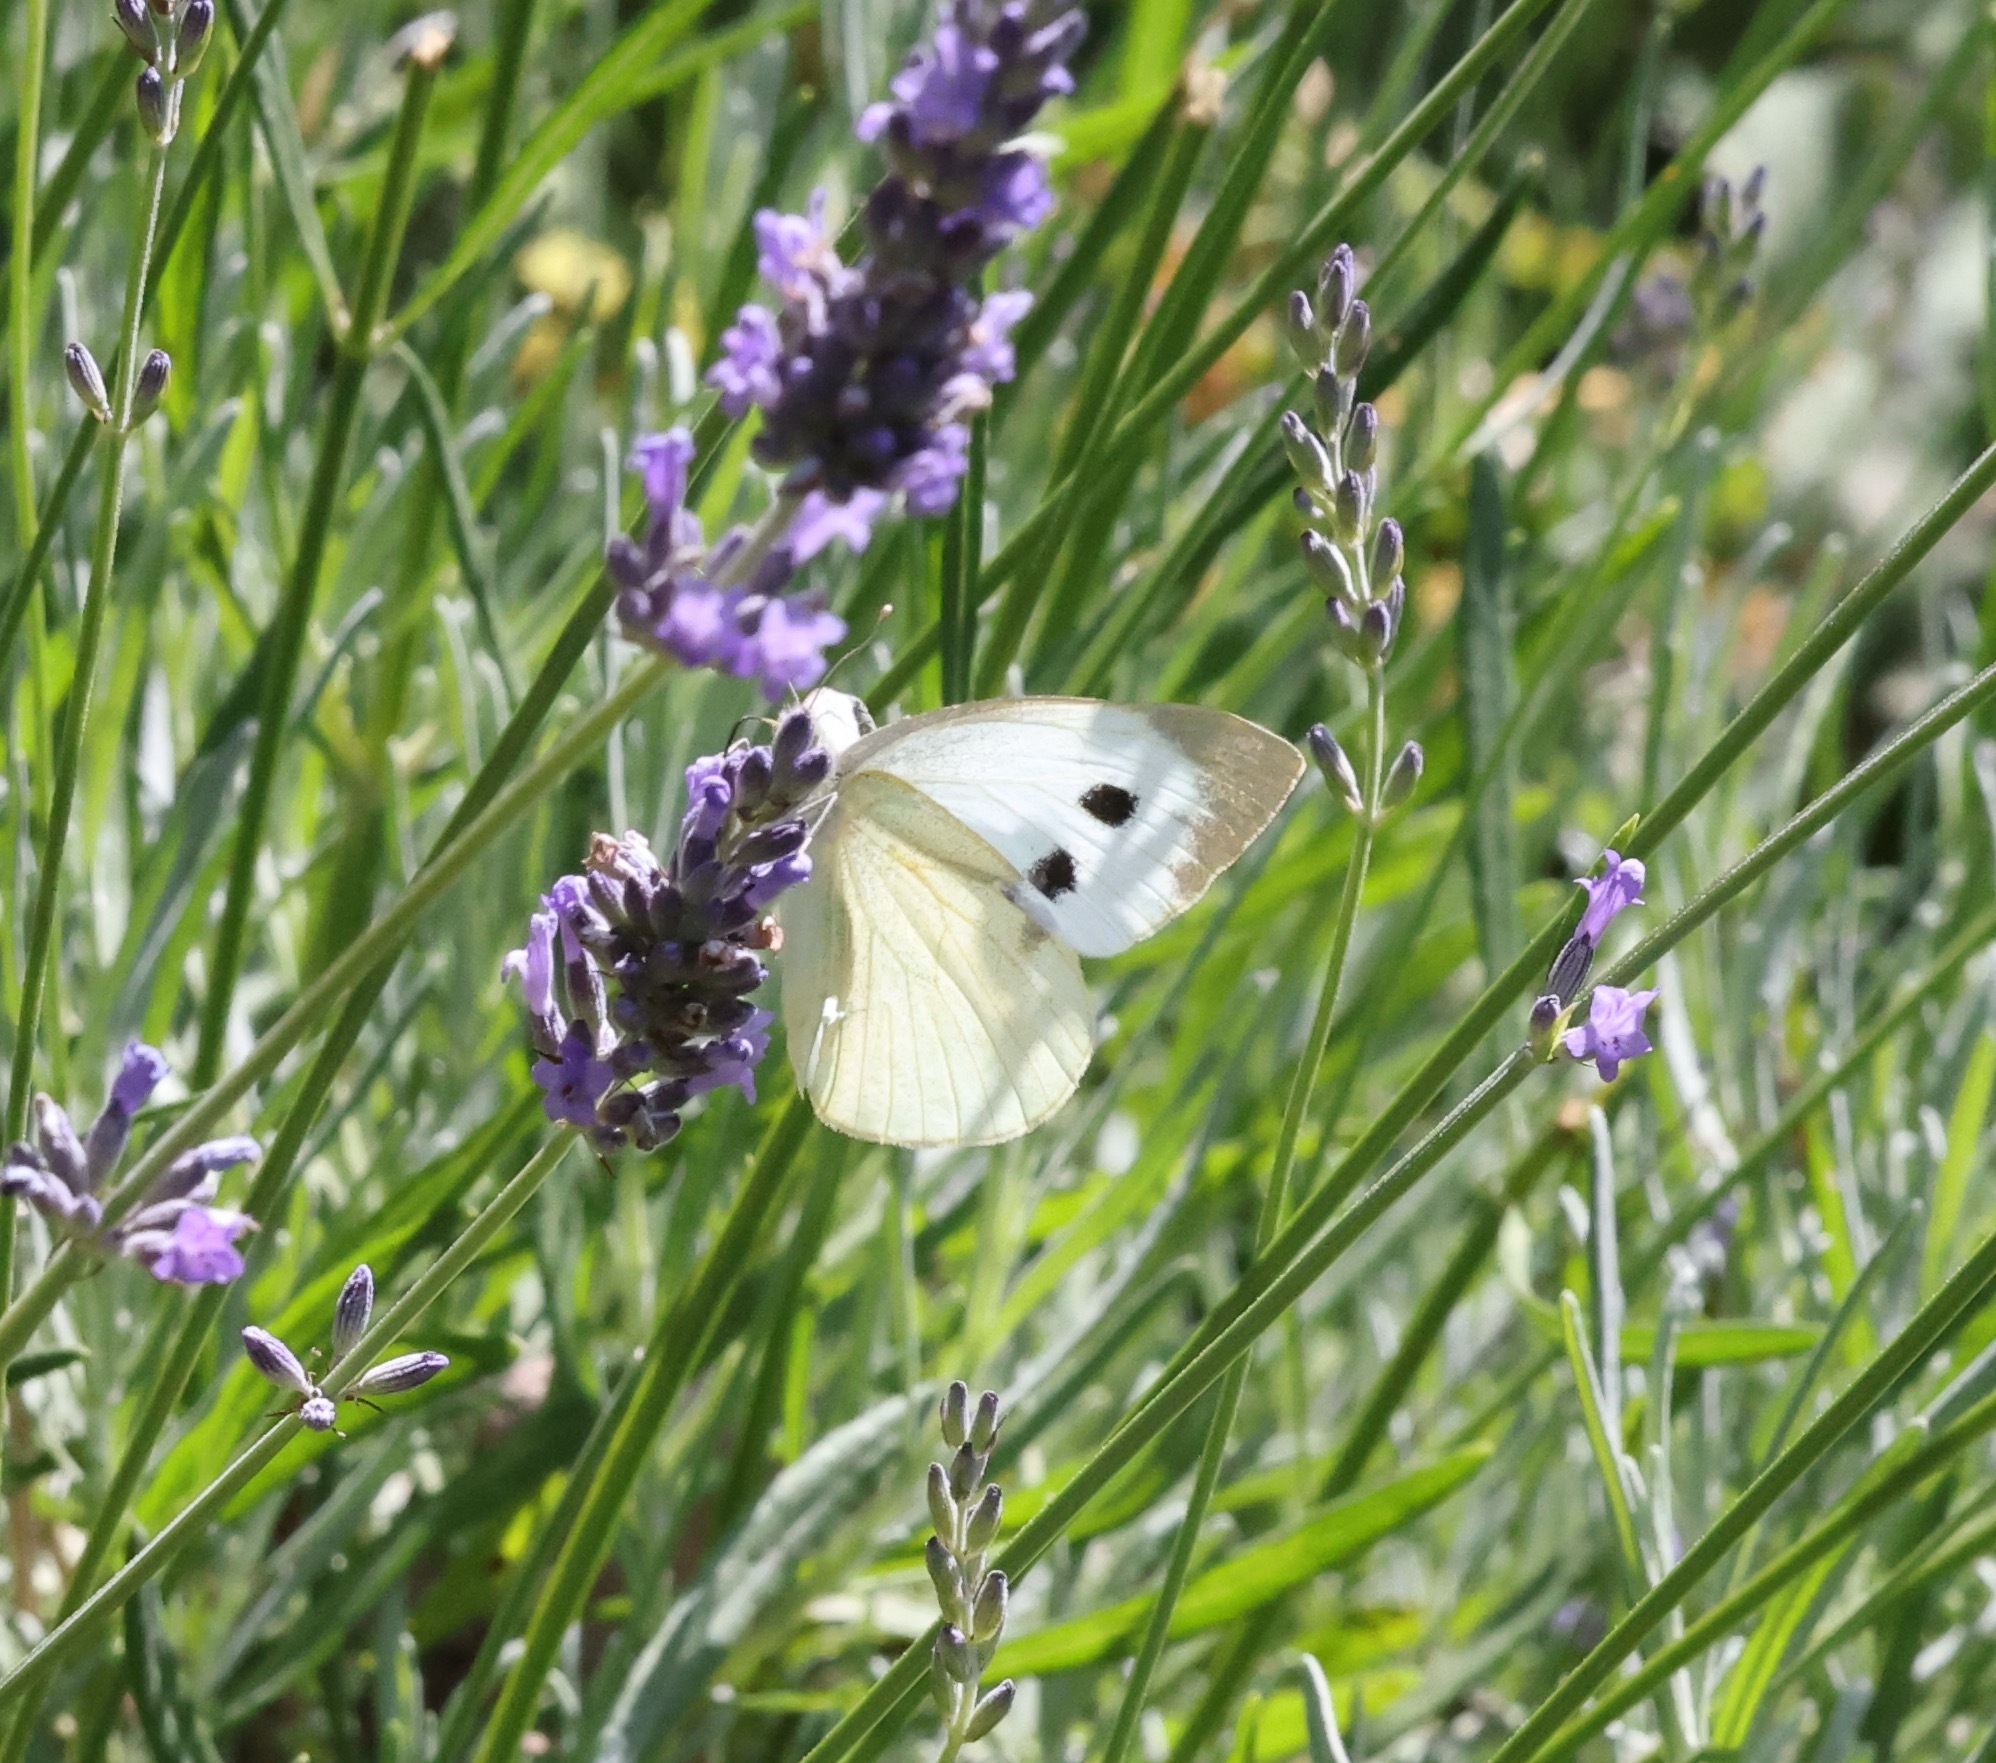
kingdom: Animalia
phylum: Arthropoda
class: Insecta
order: Lepidoptera
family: Pieridae
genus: Pieris
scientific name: Pieris brassicae
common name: Large white
